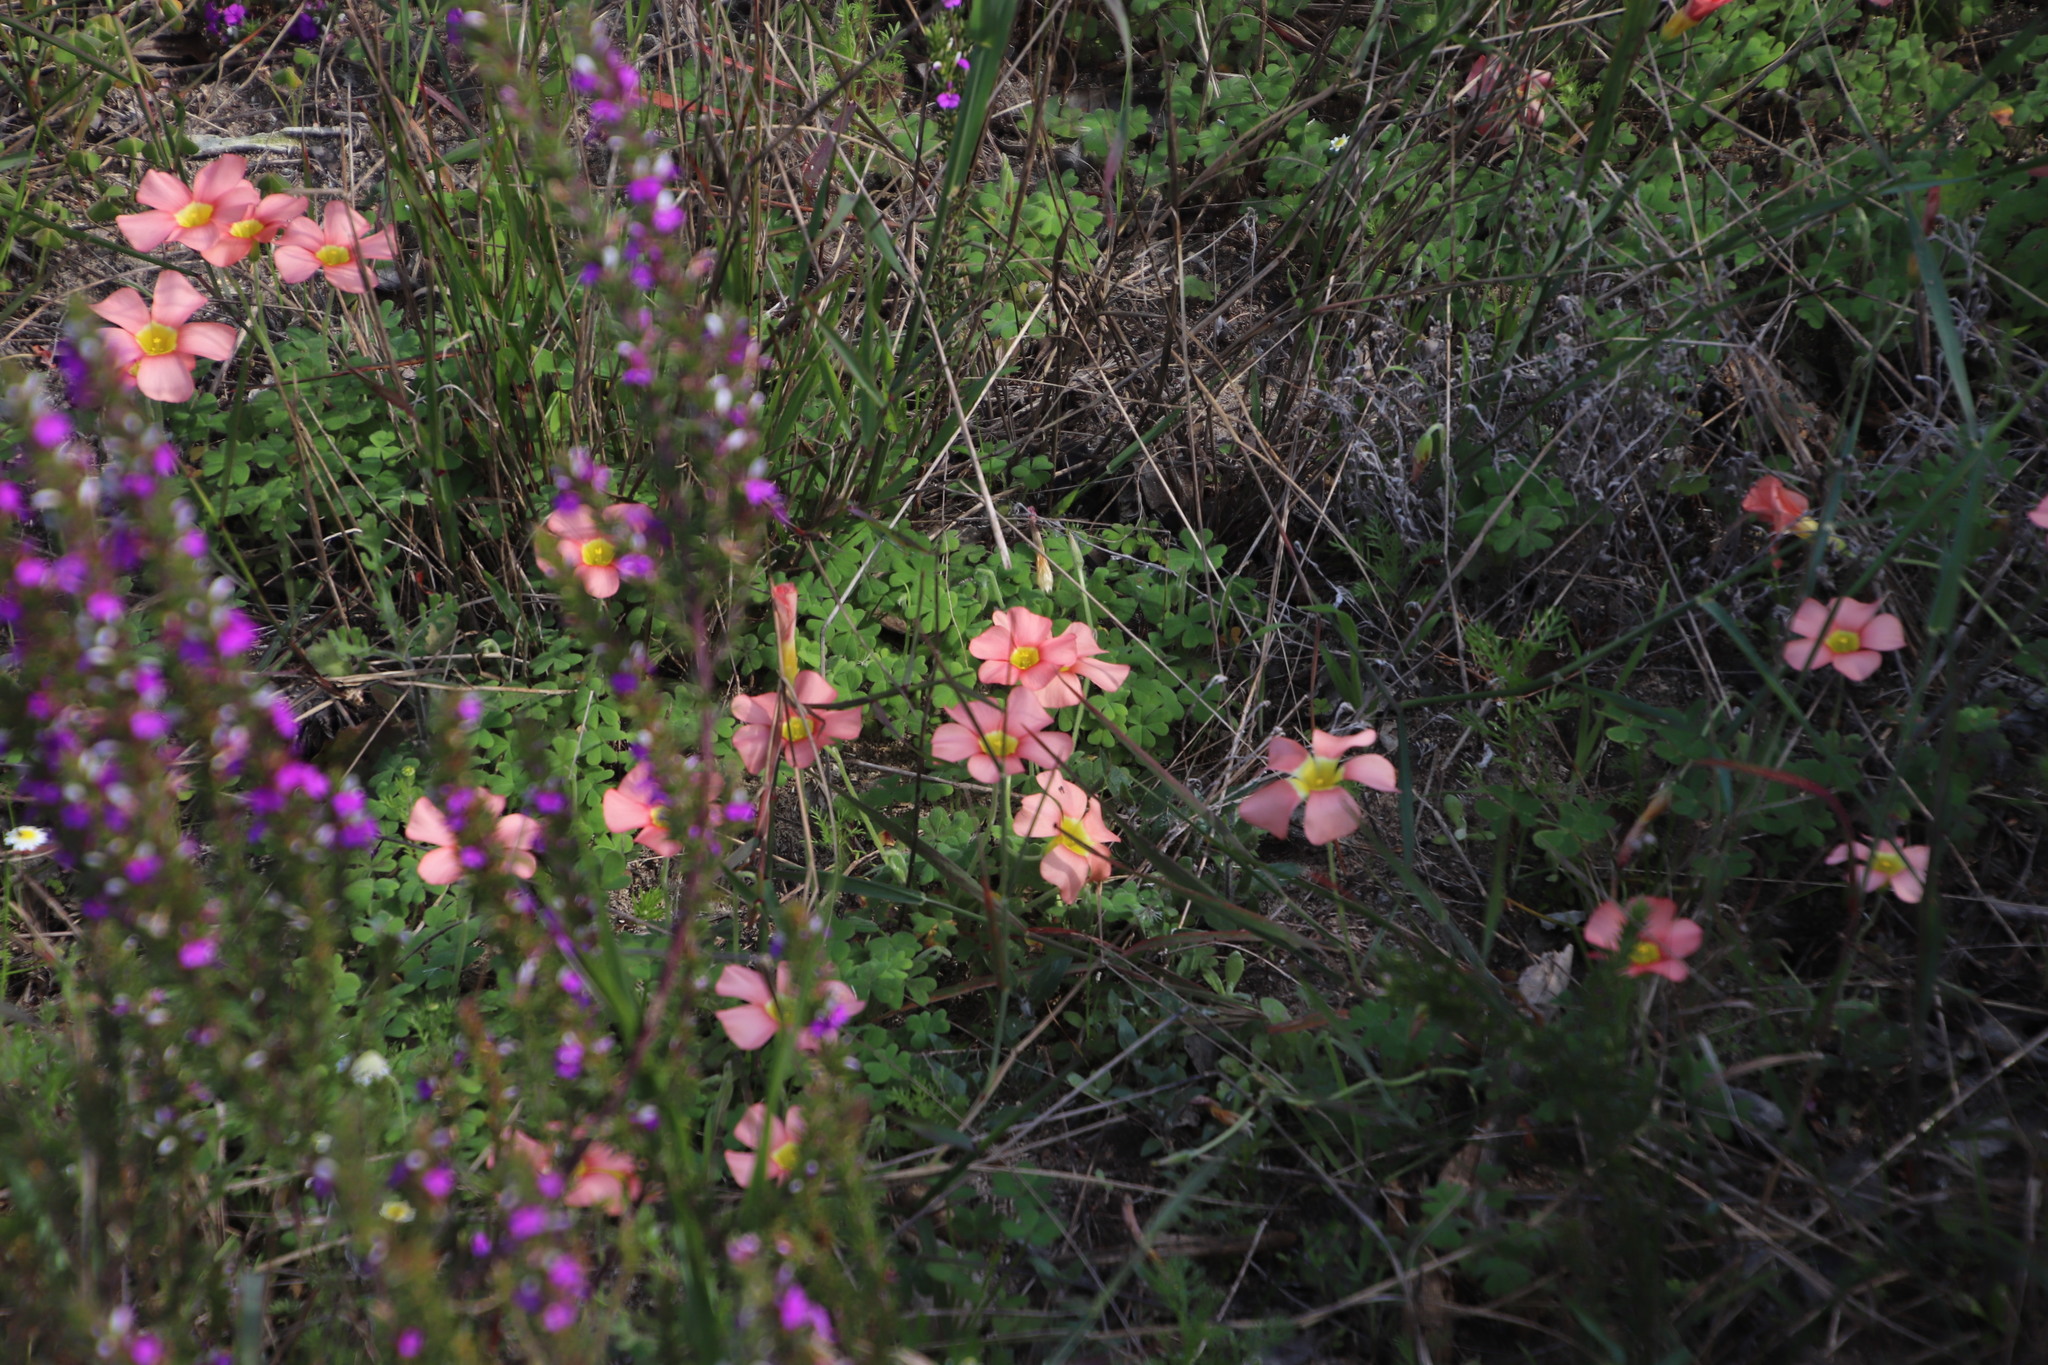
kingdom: Plantae
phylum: Tracheophyta
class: Magnoliopsida
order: Oxalidales
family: Oxalidaceae
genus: Oxalis
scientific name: Oxalis obtusa
